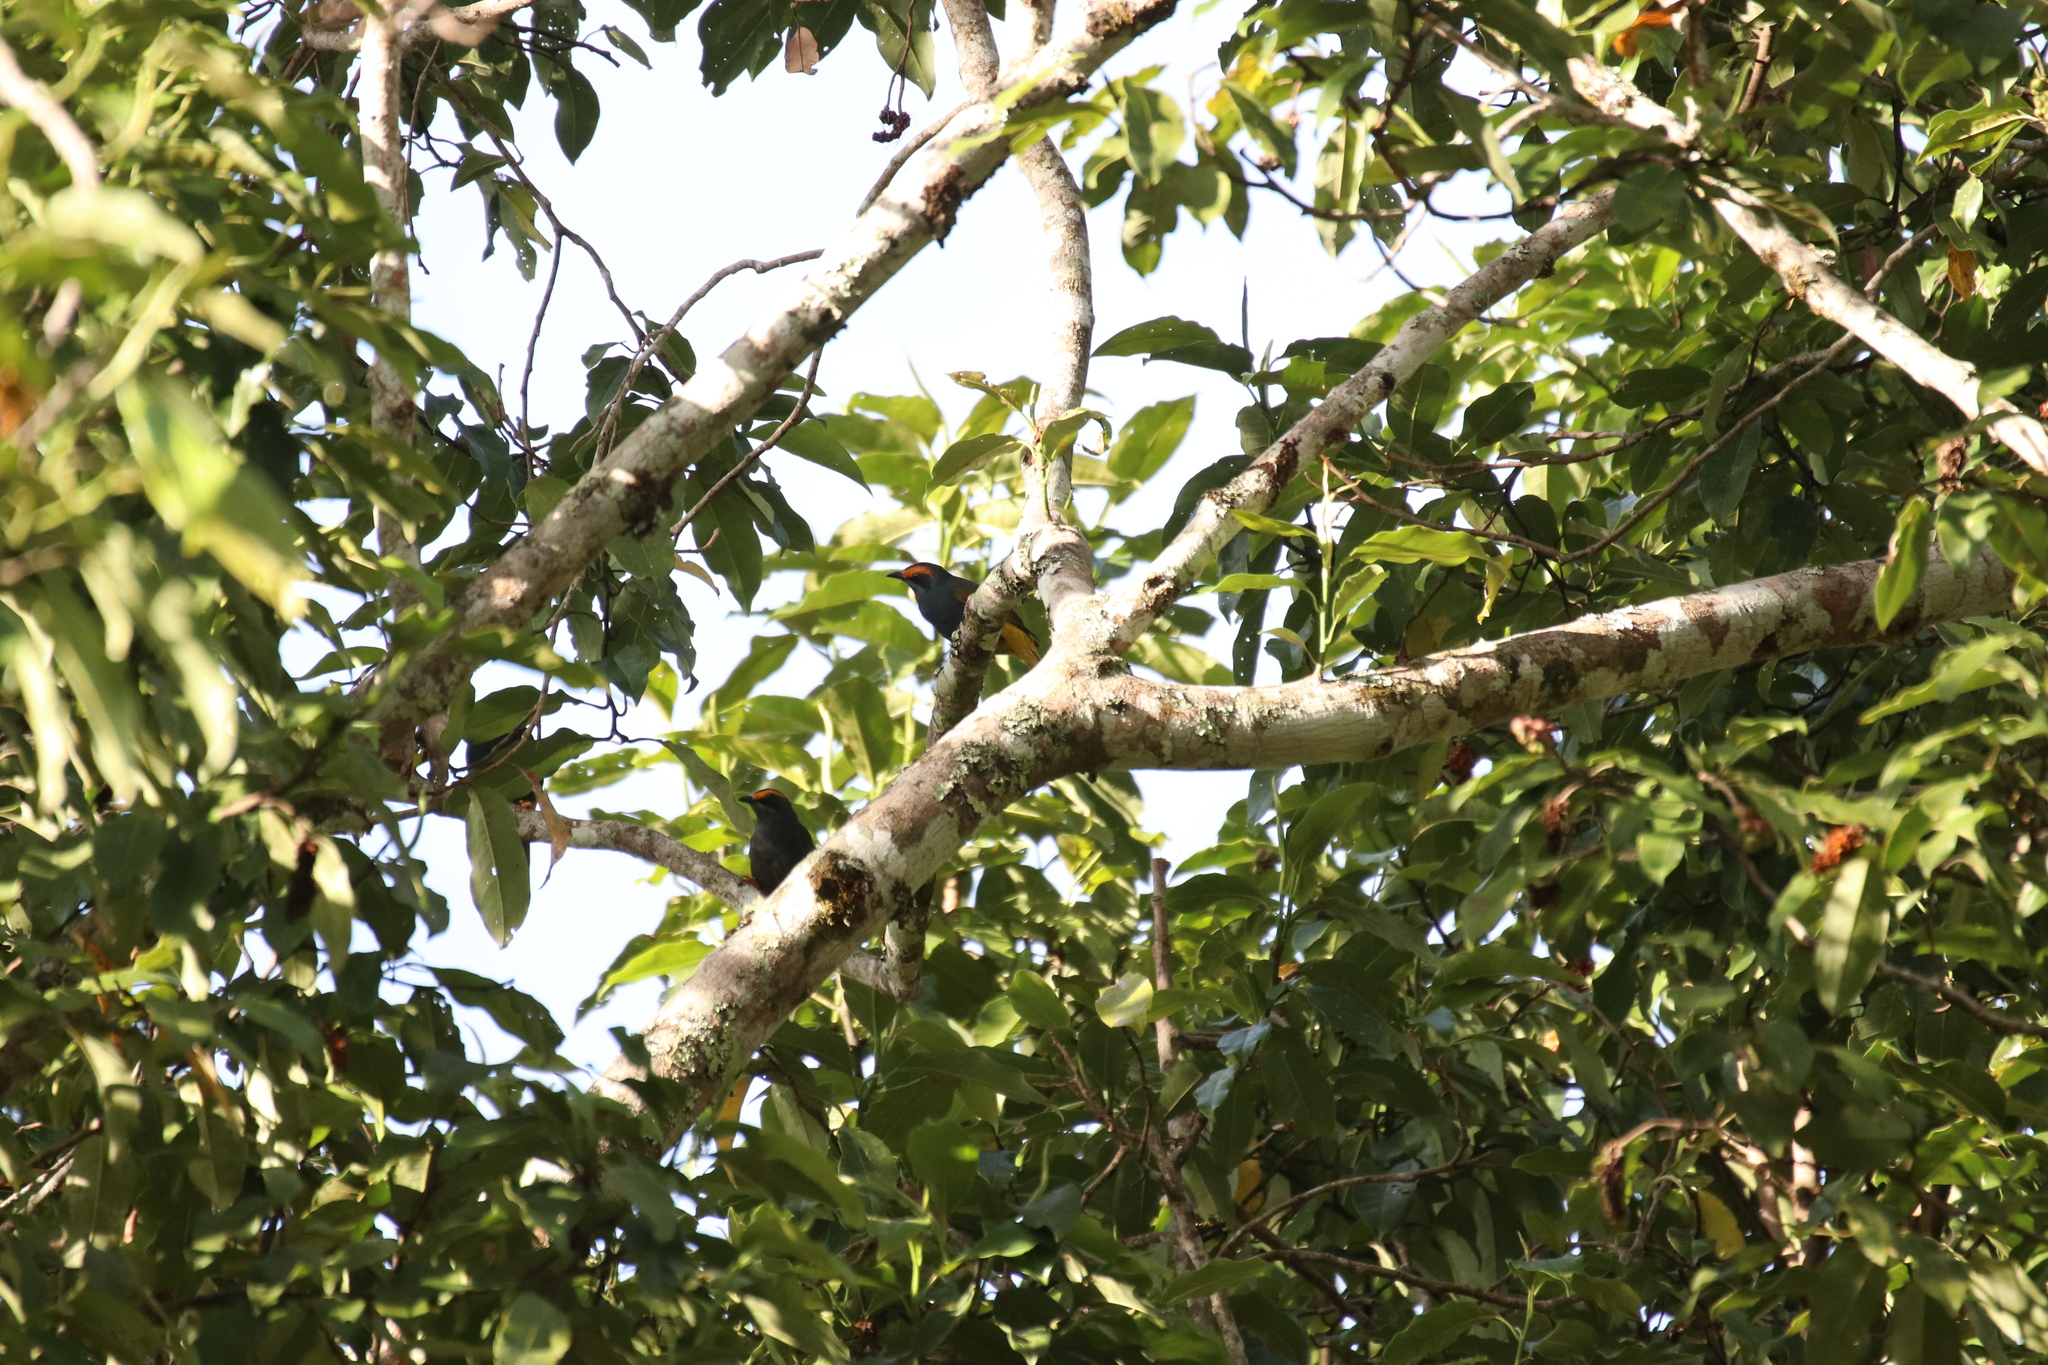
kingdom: Animalia
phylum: Chordata
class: Aves
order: Passeriformes
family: Sturnidae
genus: Enodes
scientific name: Enodes erythrophris
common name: Fiery-browed starling
